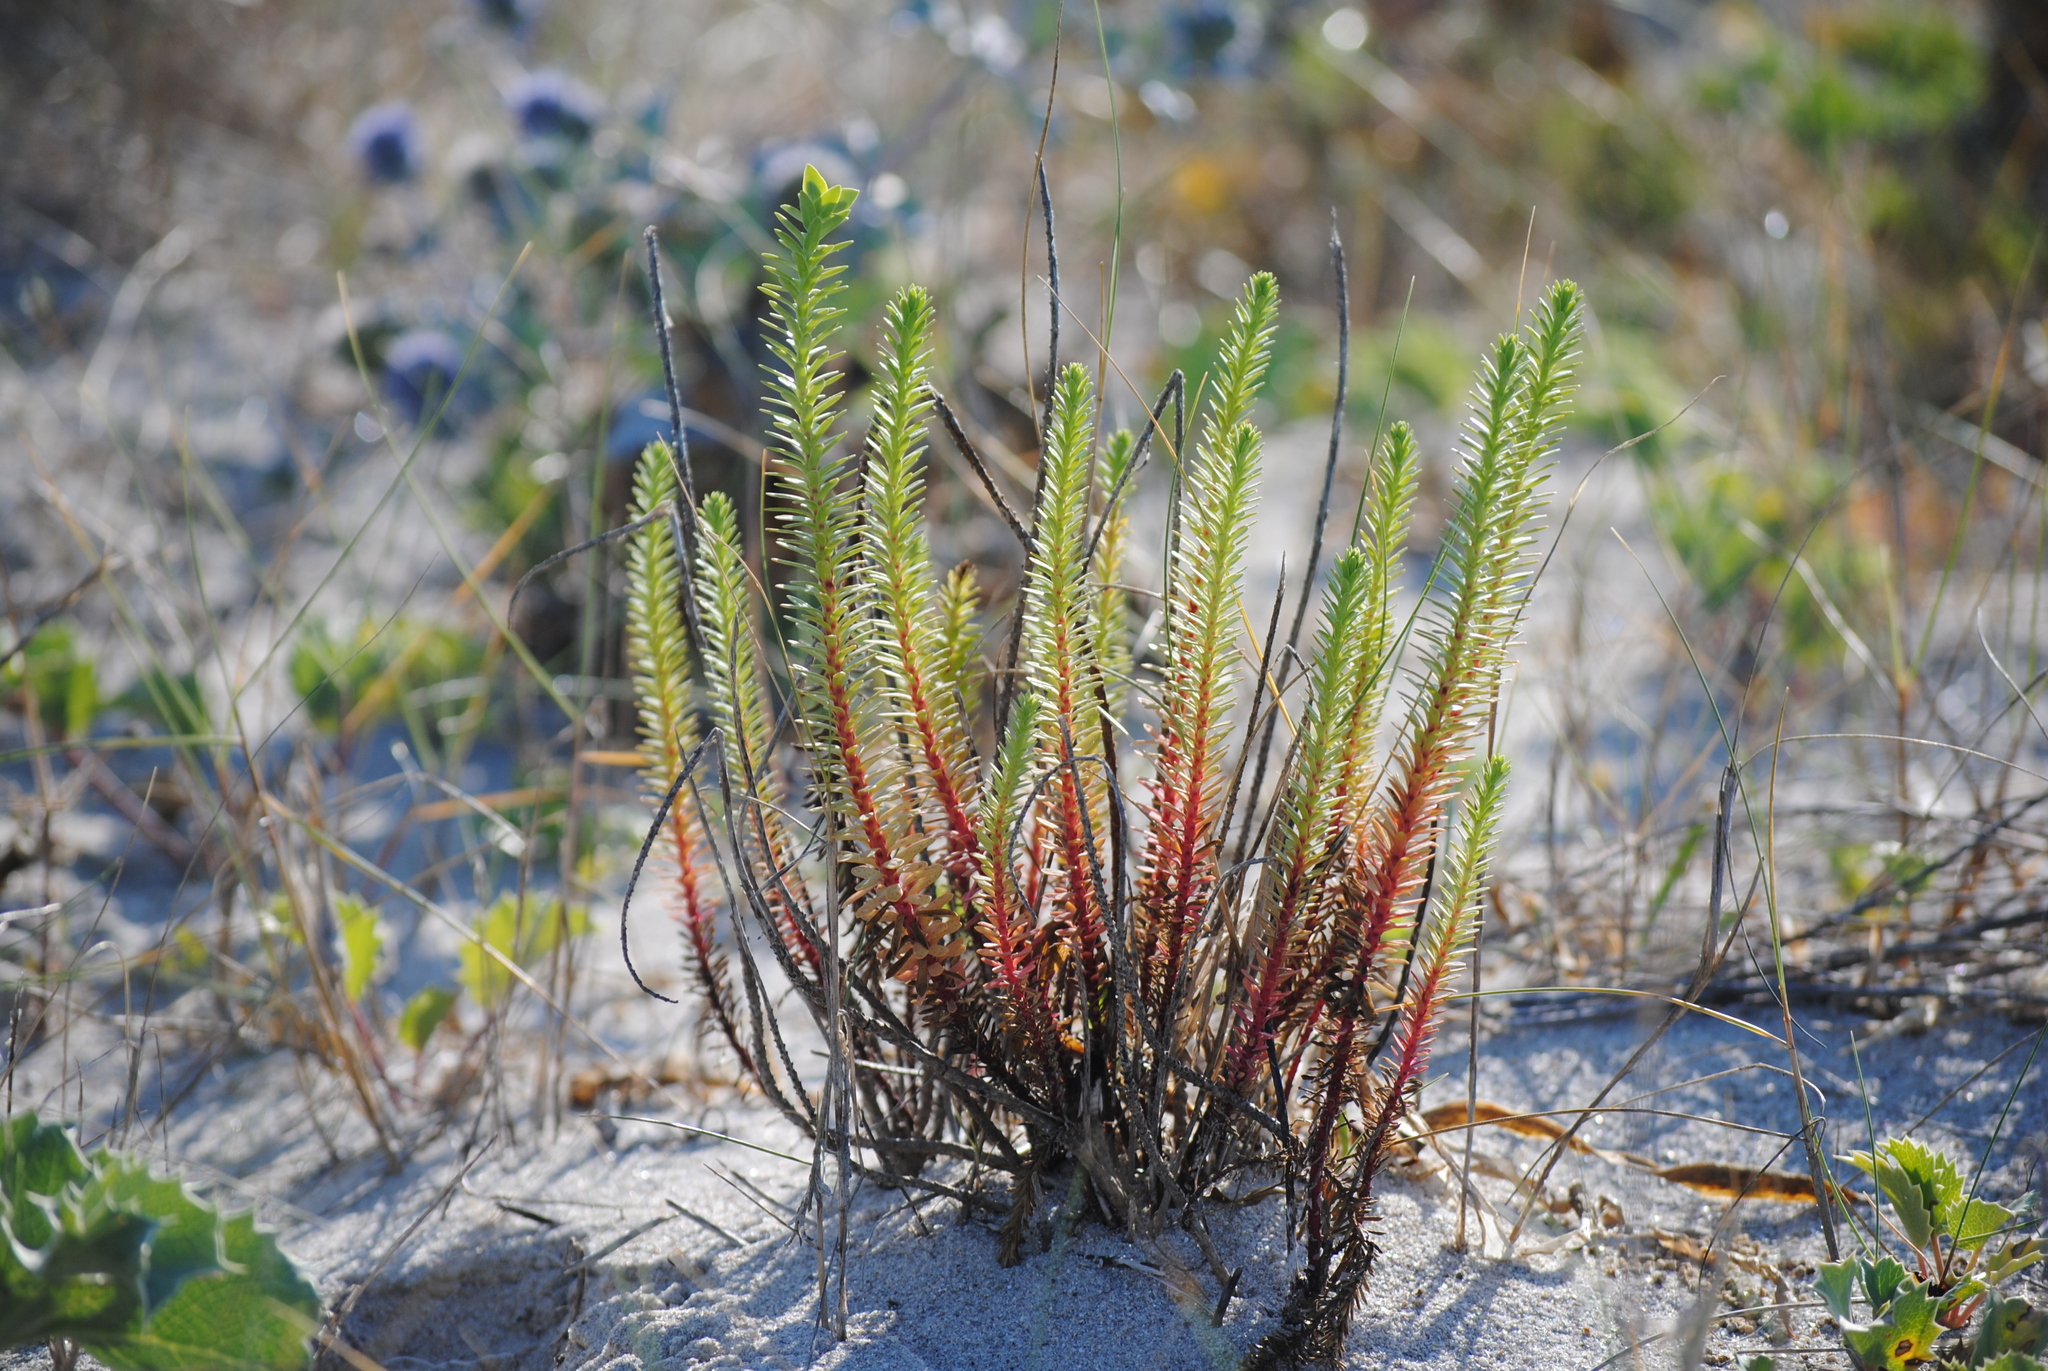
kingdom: Plantae
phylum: Tracheophyta
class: Magnoliopsida
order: Malpighiales
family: Euphorbiaceae
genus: Euphorbia
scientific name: Euphorbia paralias
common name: Sea spurge
